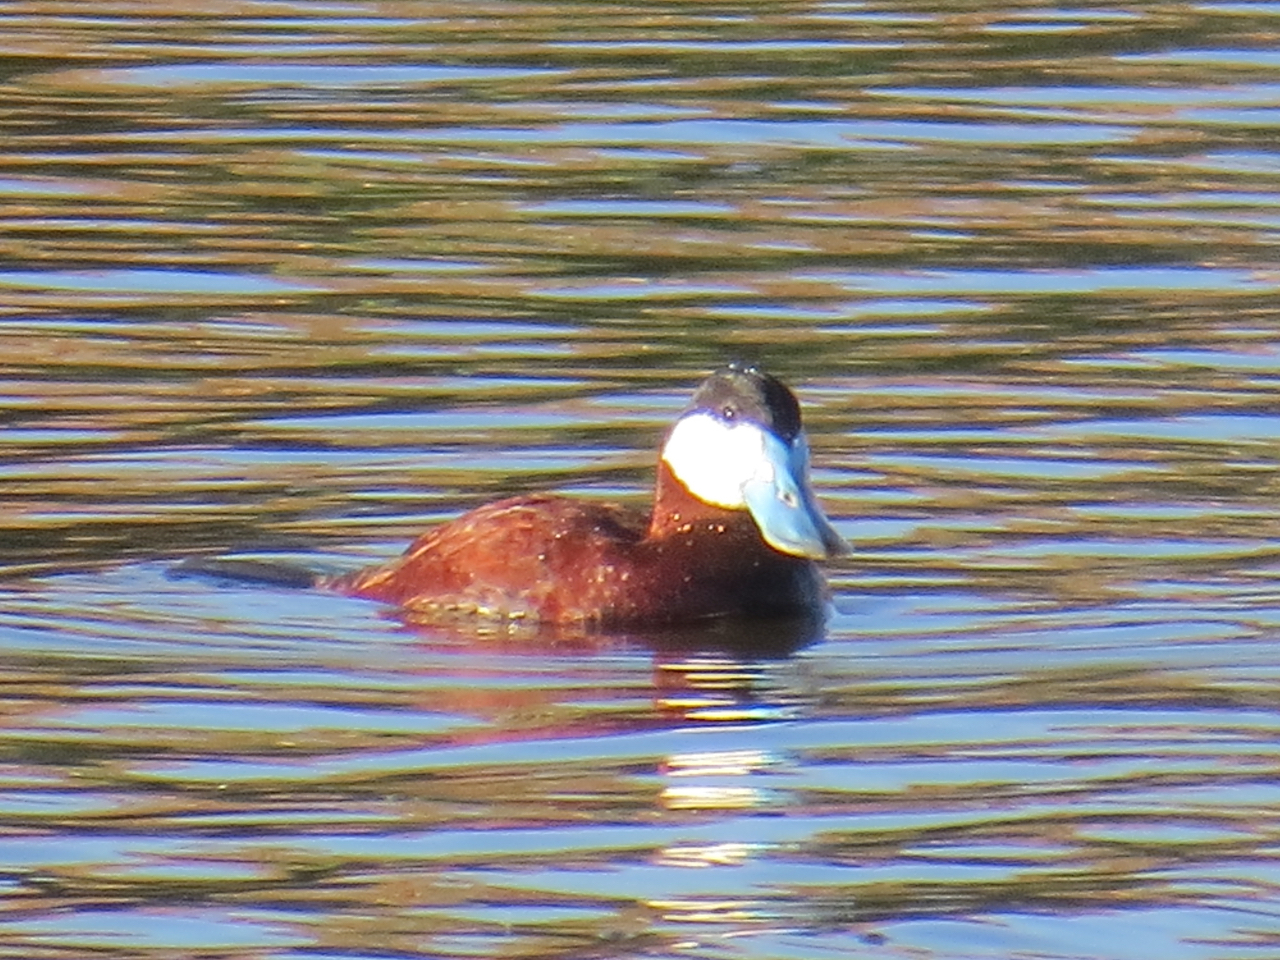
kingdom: Animalia
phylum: Chordata
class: Aves
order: Anseriformes
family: Anatidae
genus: Oxyura
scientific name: Oxyura jamaicensis
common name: Ruddy duck
